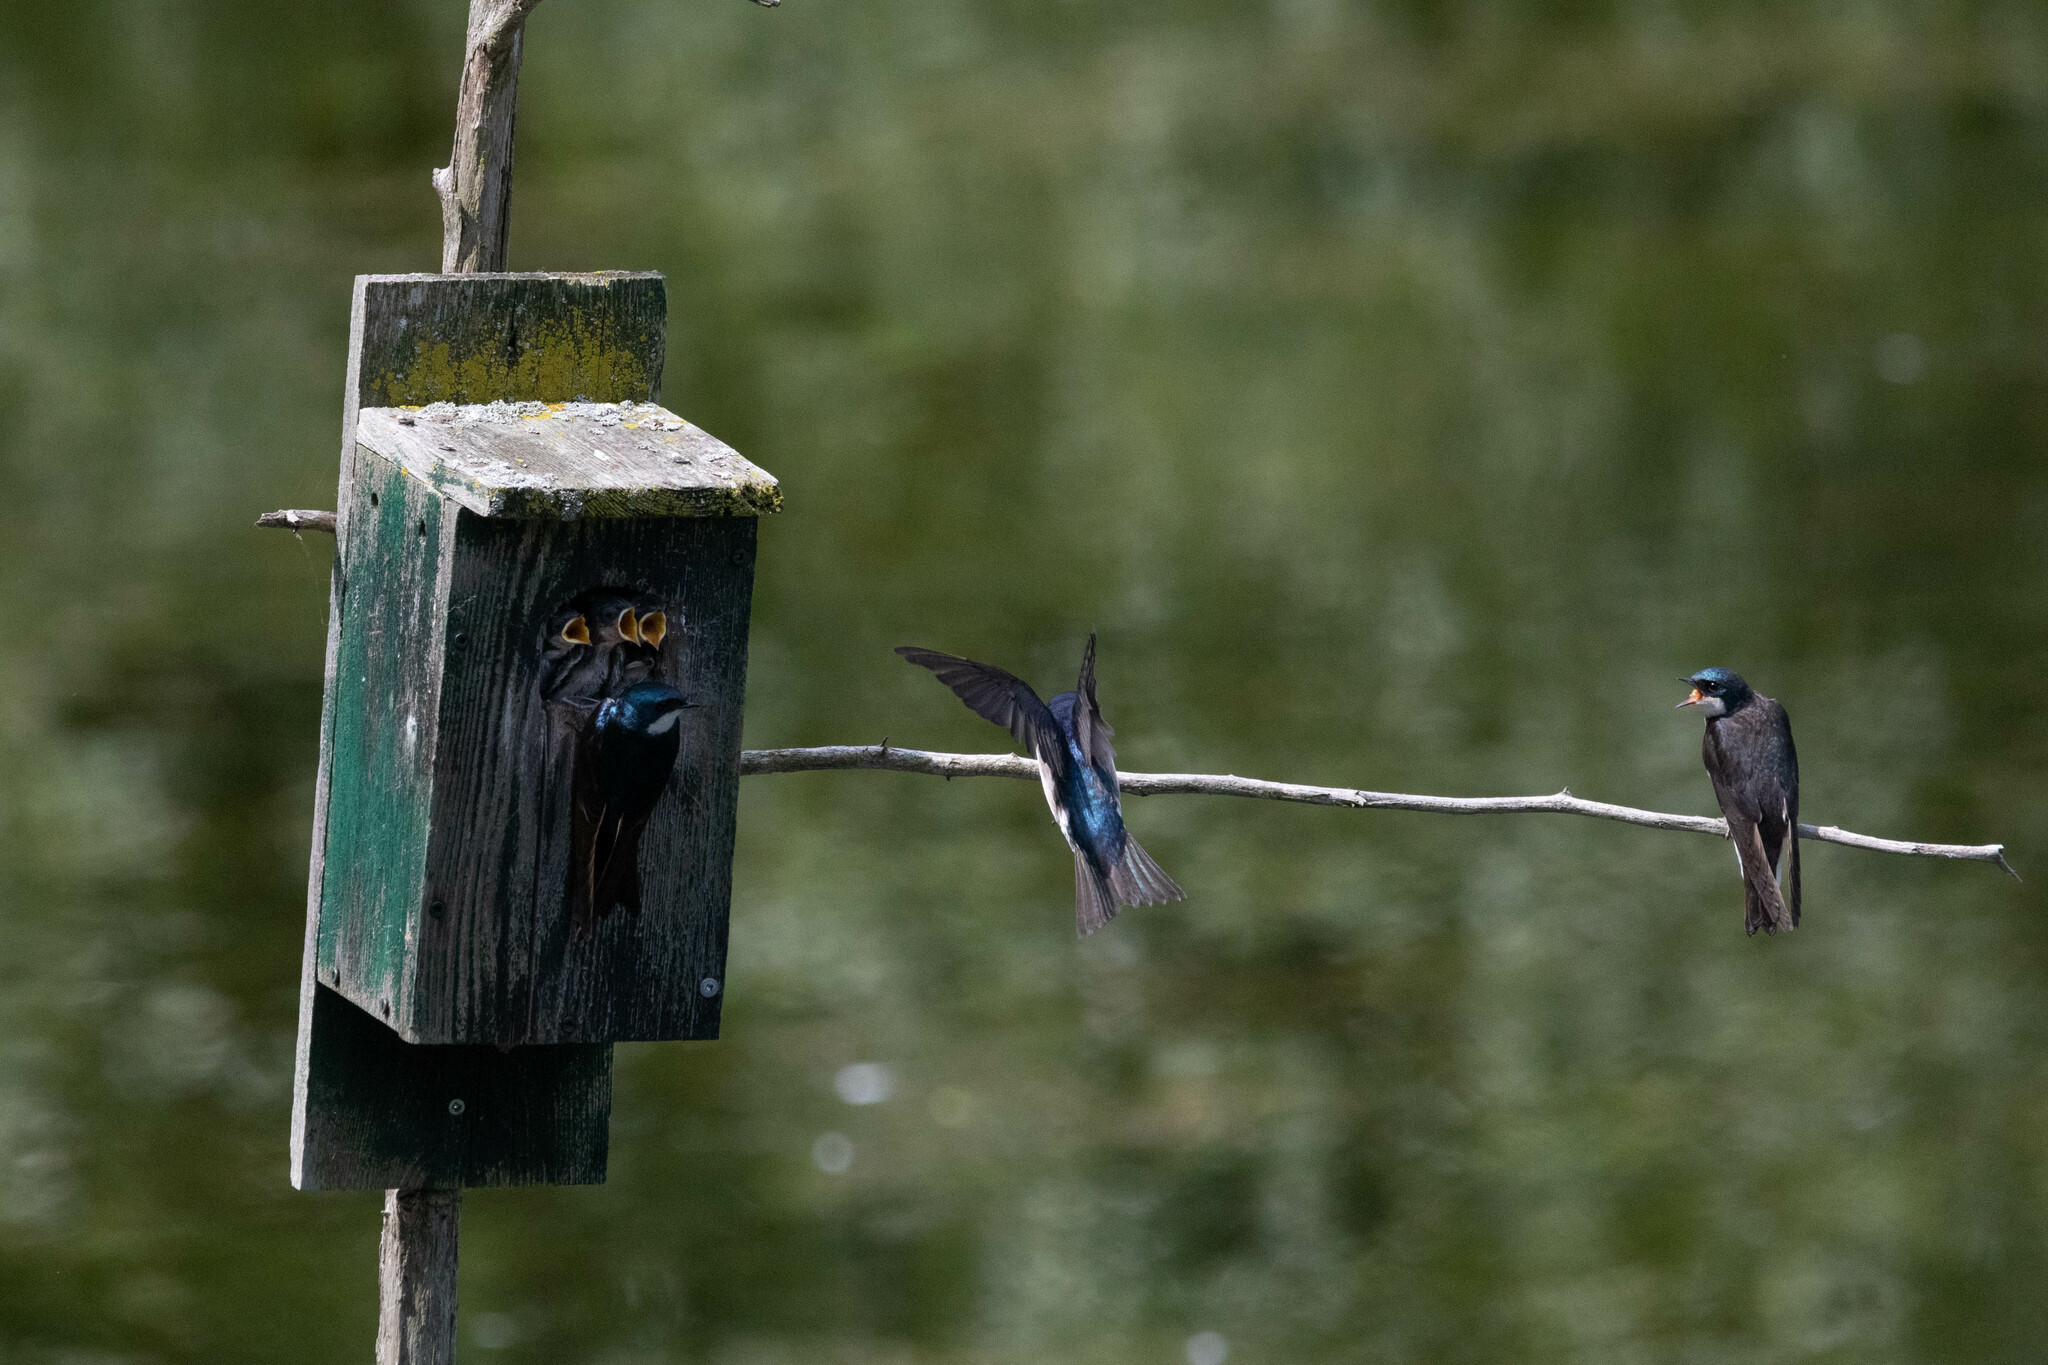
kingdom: Animalia
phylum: Chordata
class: Aves
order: Passeriformes
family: Hirundinidae
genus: Tachycineta
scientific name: Tachycineta bicolor
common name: Tree swallow
